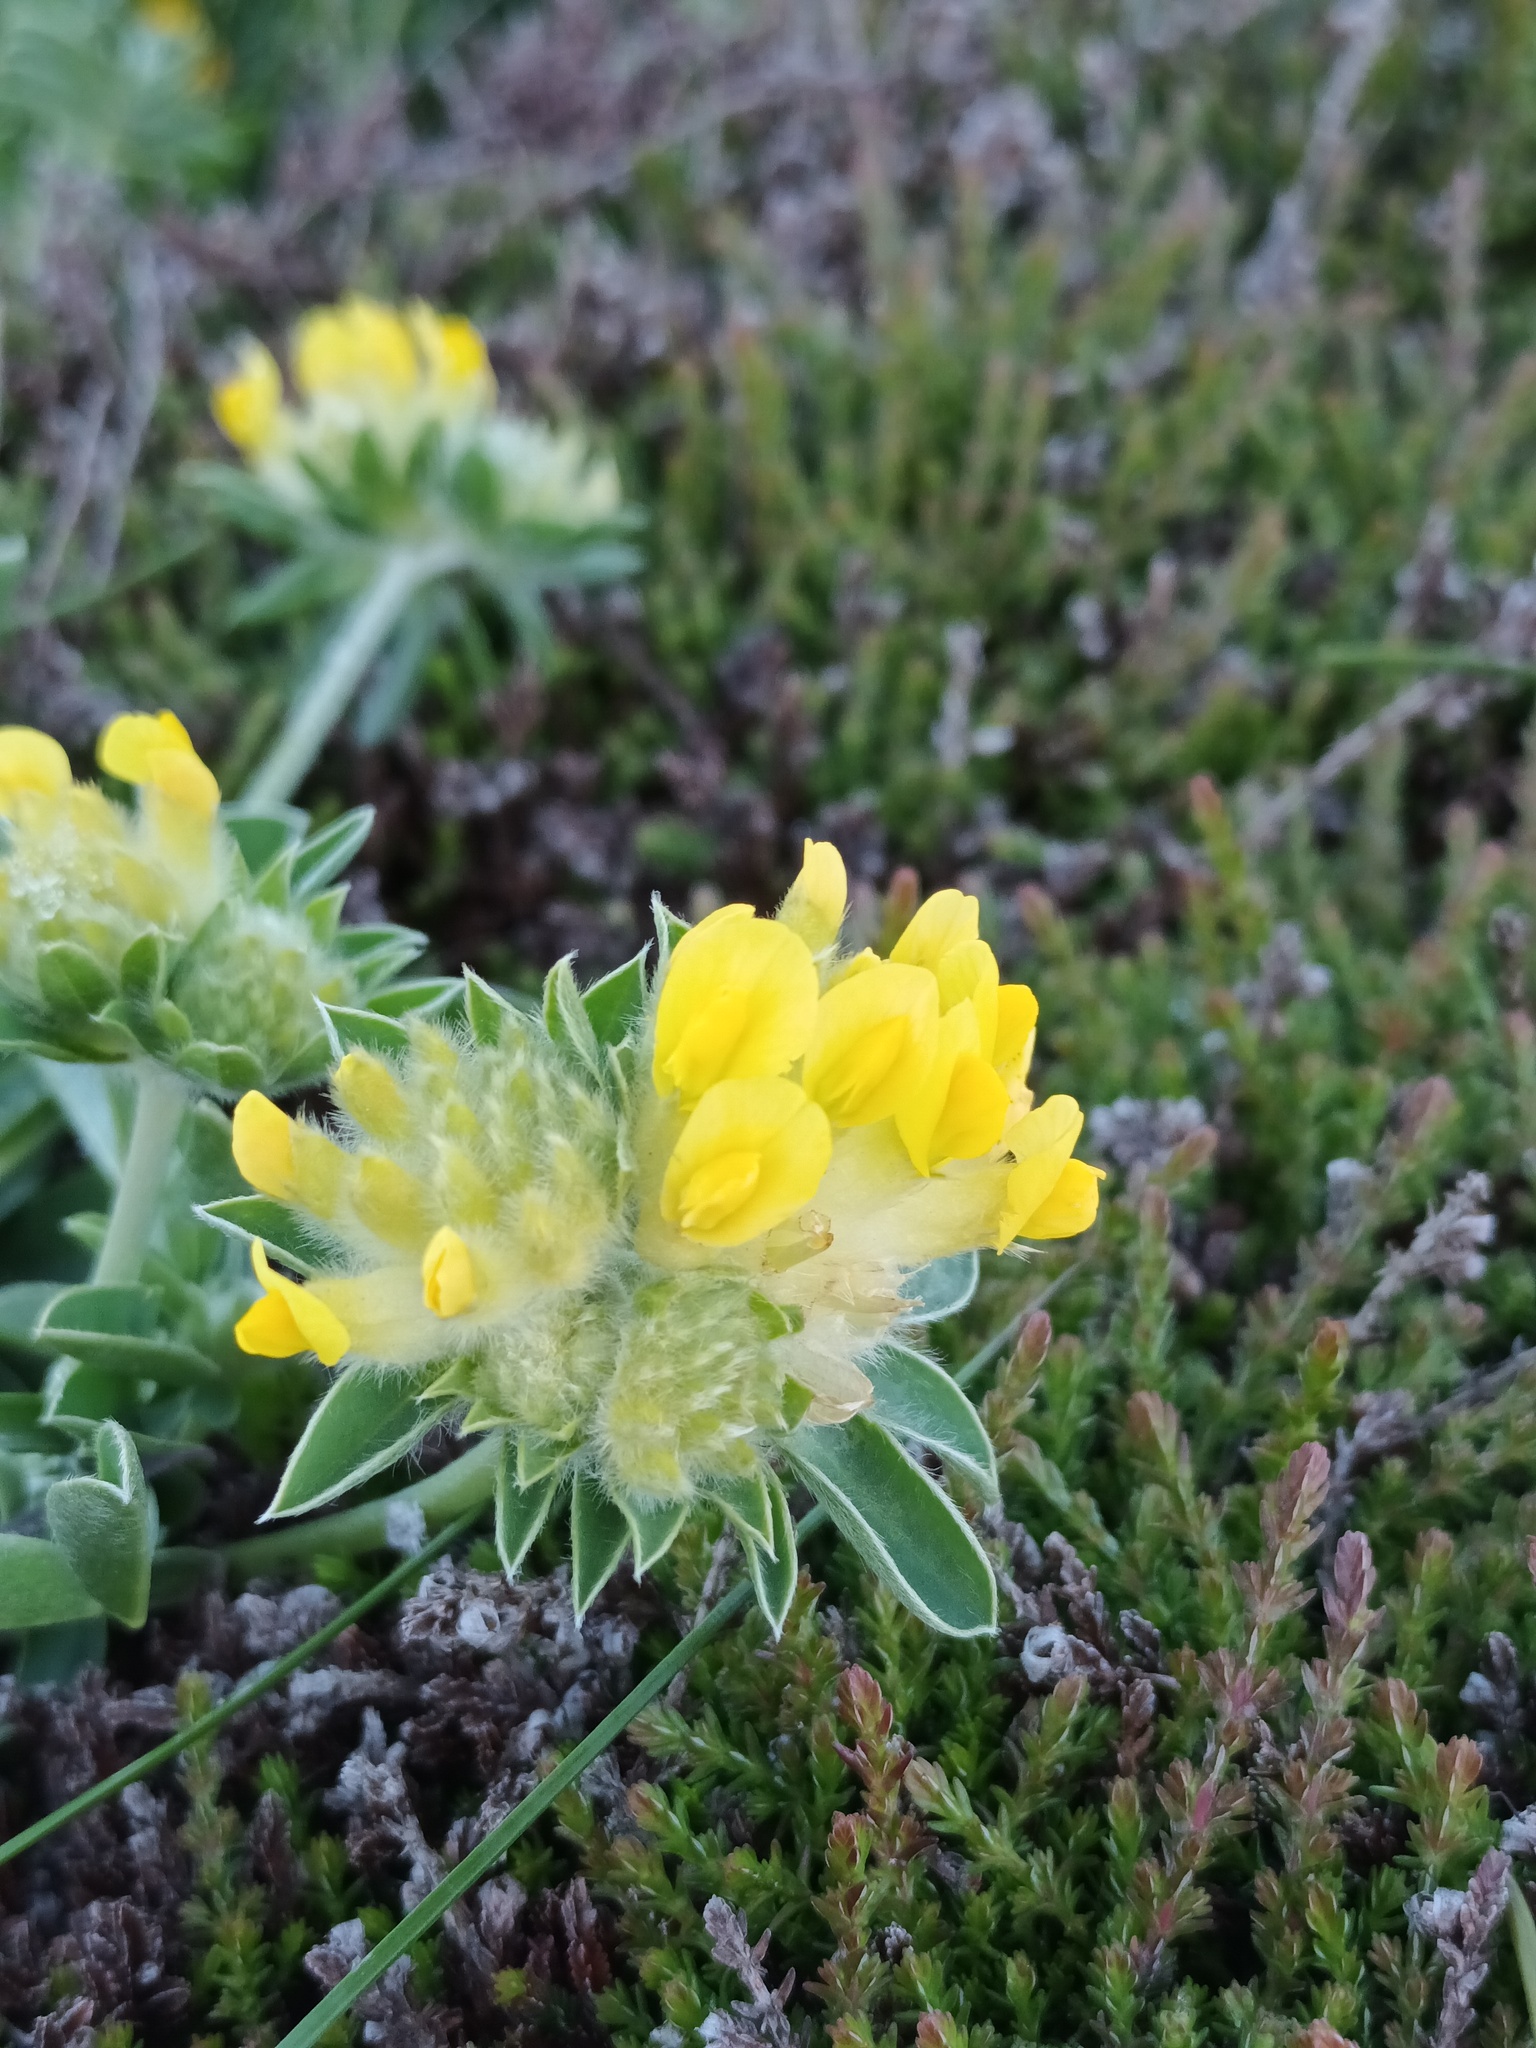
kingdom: Plantae
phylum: Tracheophyta
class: Magnoliopsida
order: Fabales
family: Fabaceae
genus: Anthyllis
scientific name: Anthyllis vulneraria
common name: Kidney vetch
